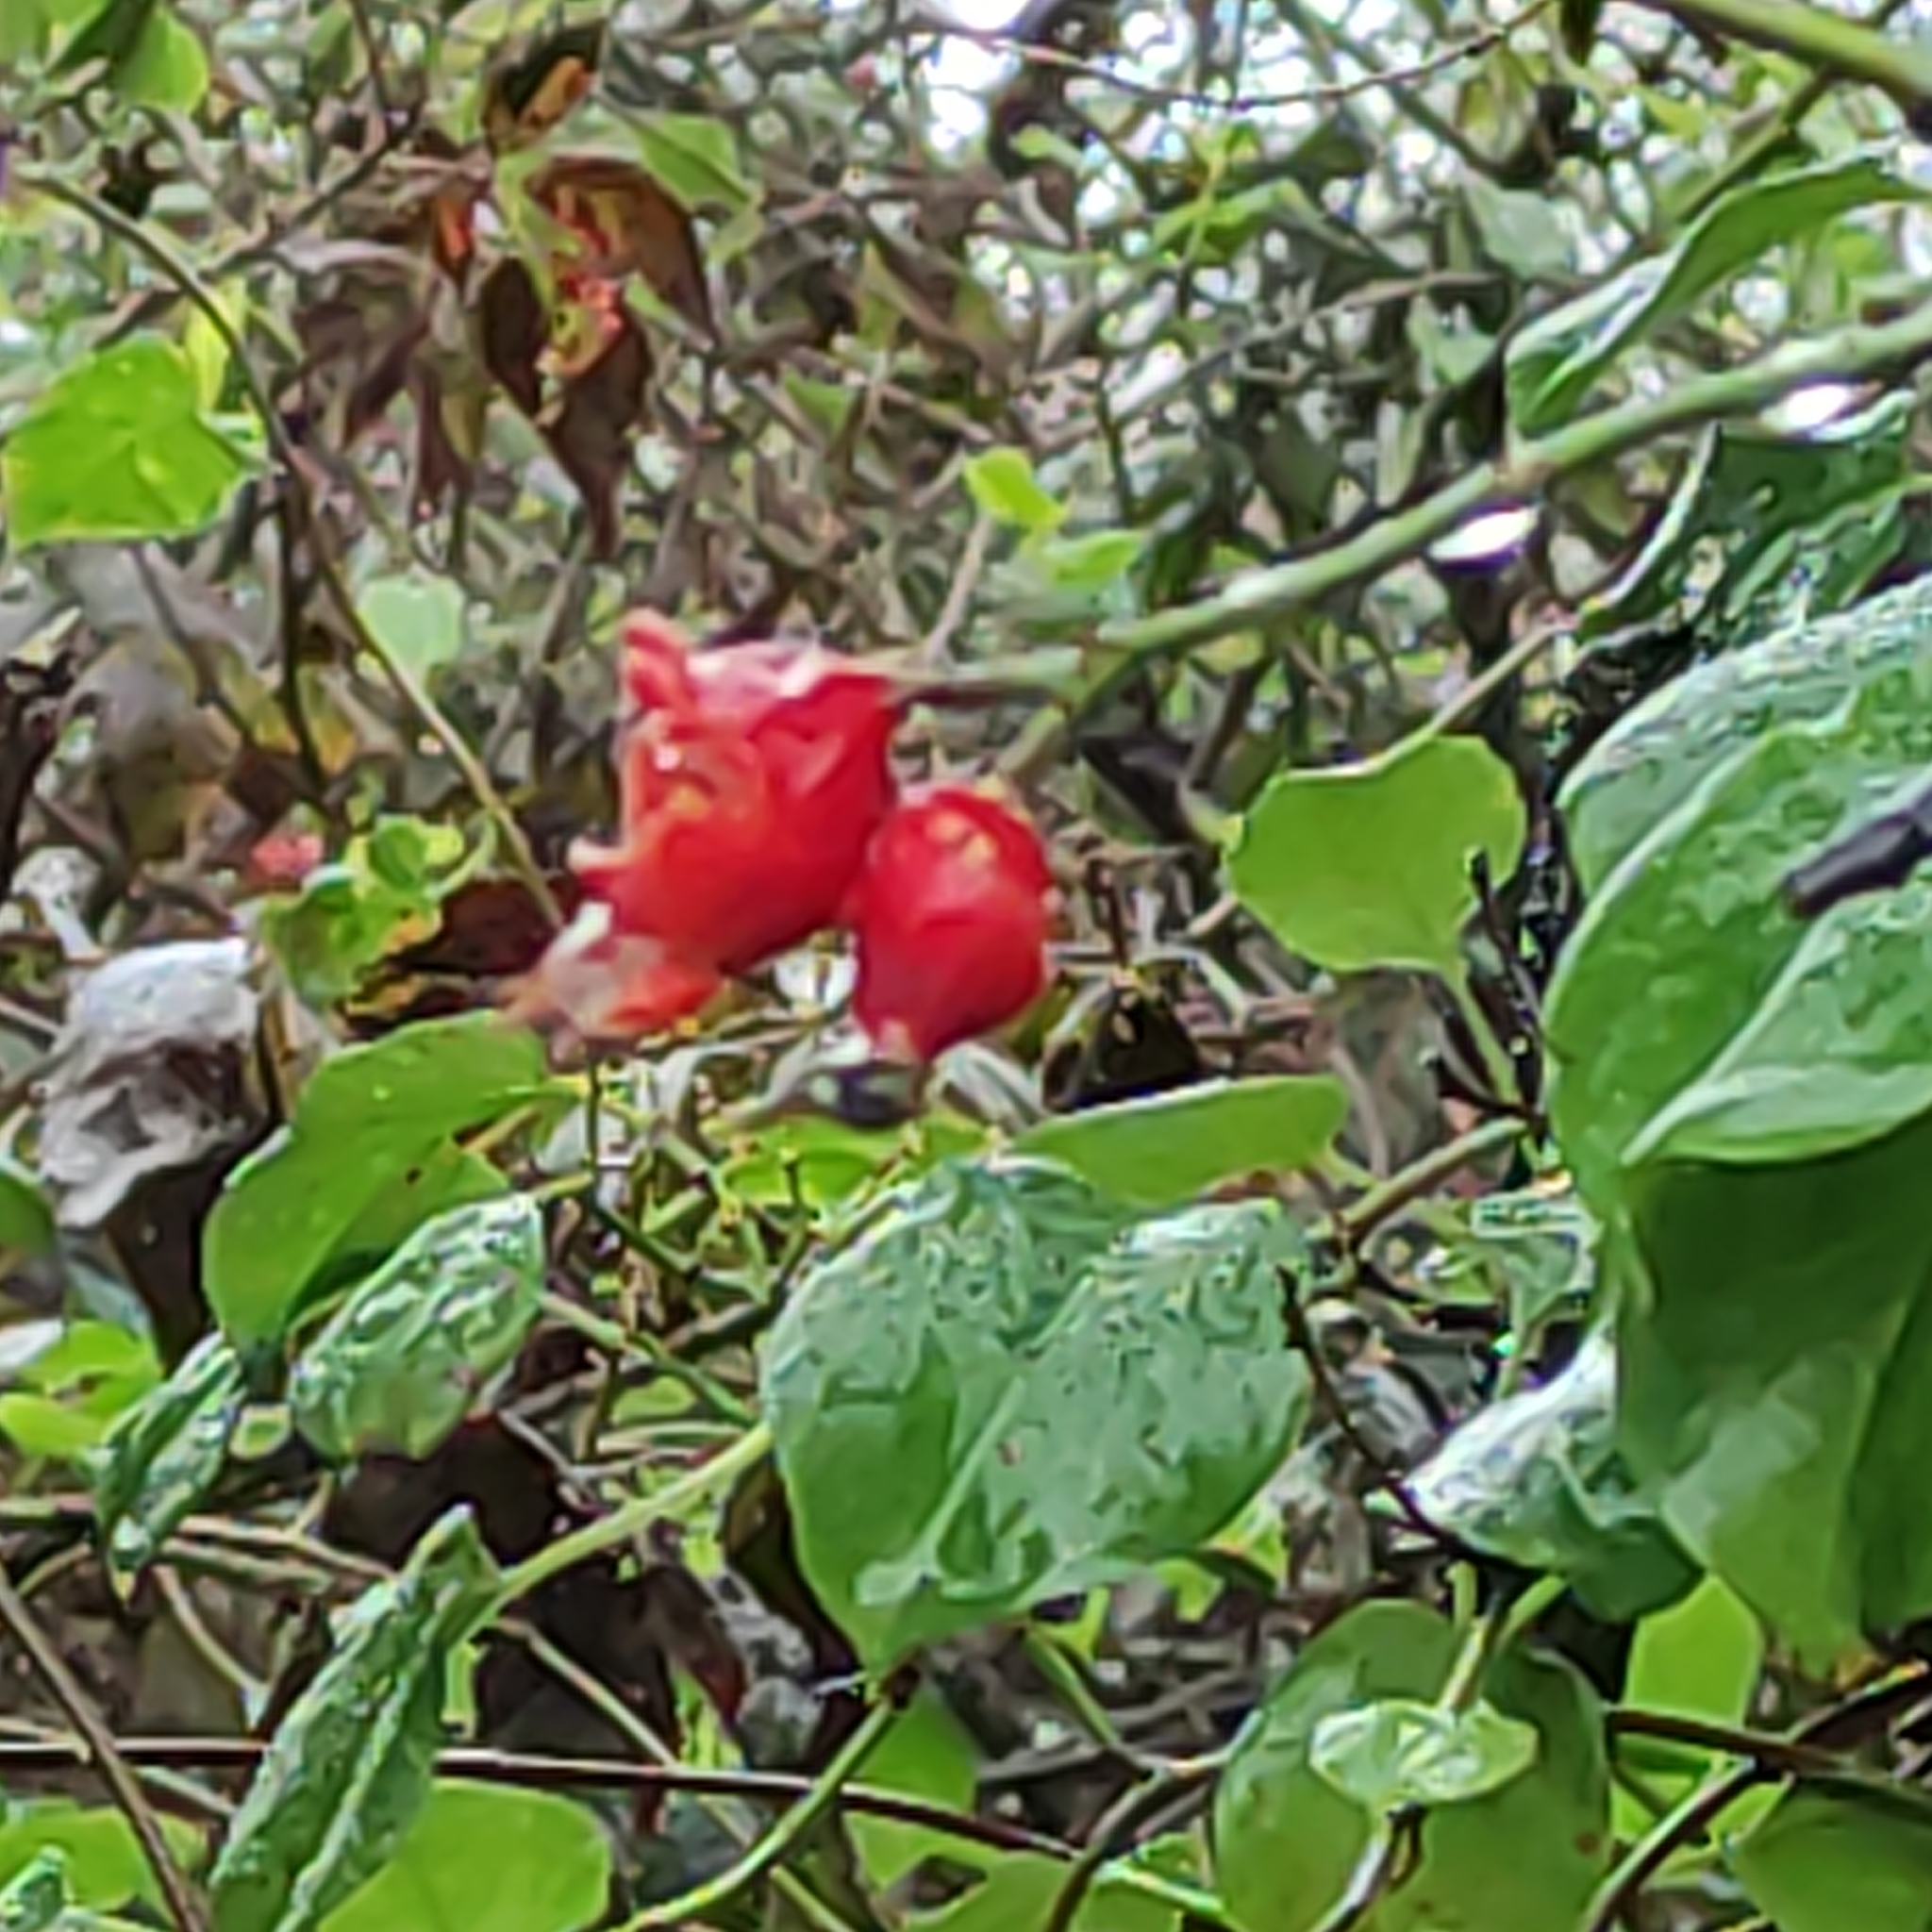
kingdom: Plantae
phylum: Tracheophyta
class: Magnoliopsida
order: Caryophyllales
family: Polygonaceae
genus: Muehlenbeckia
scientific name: Muehlenbeckia australis
